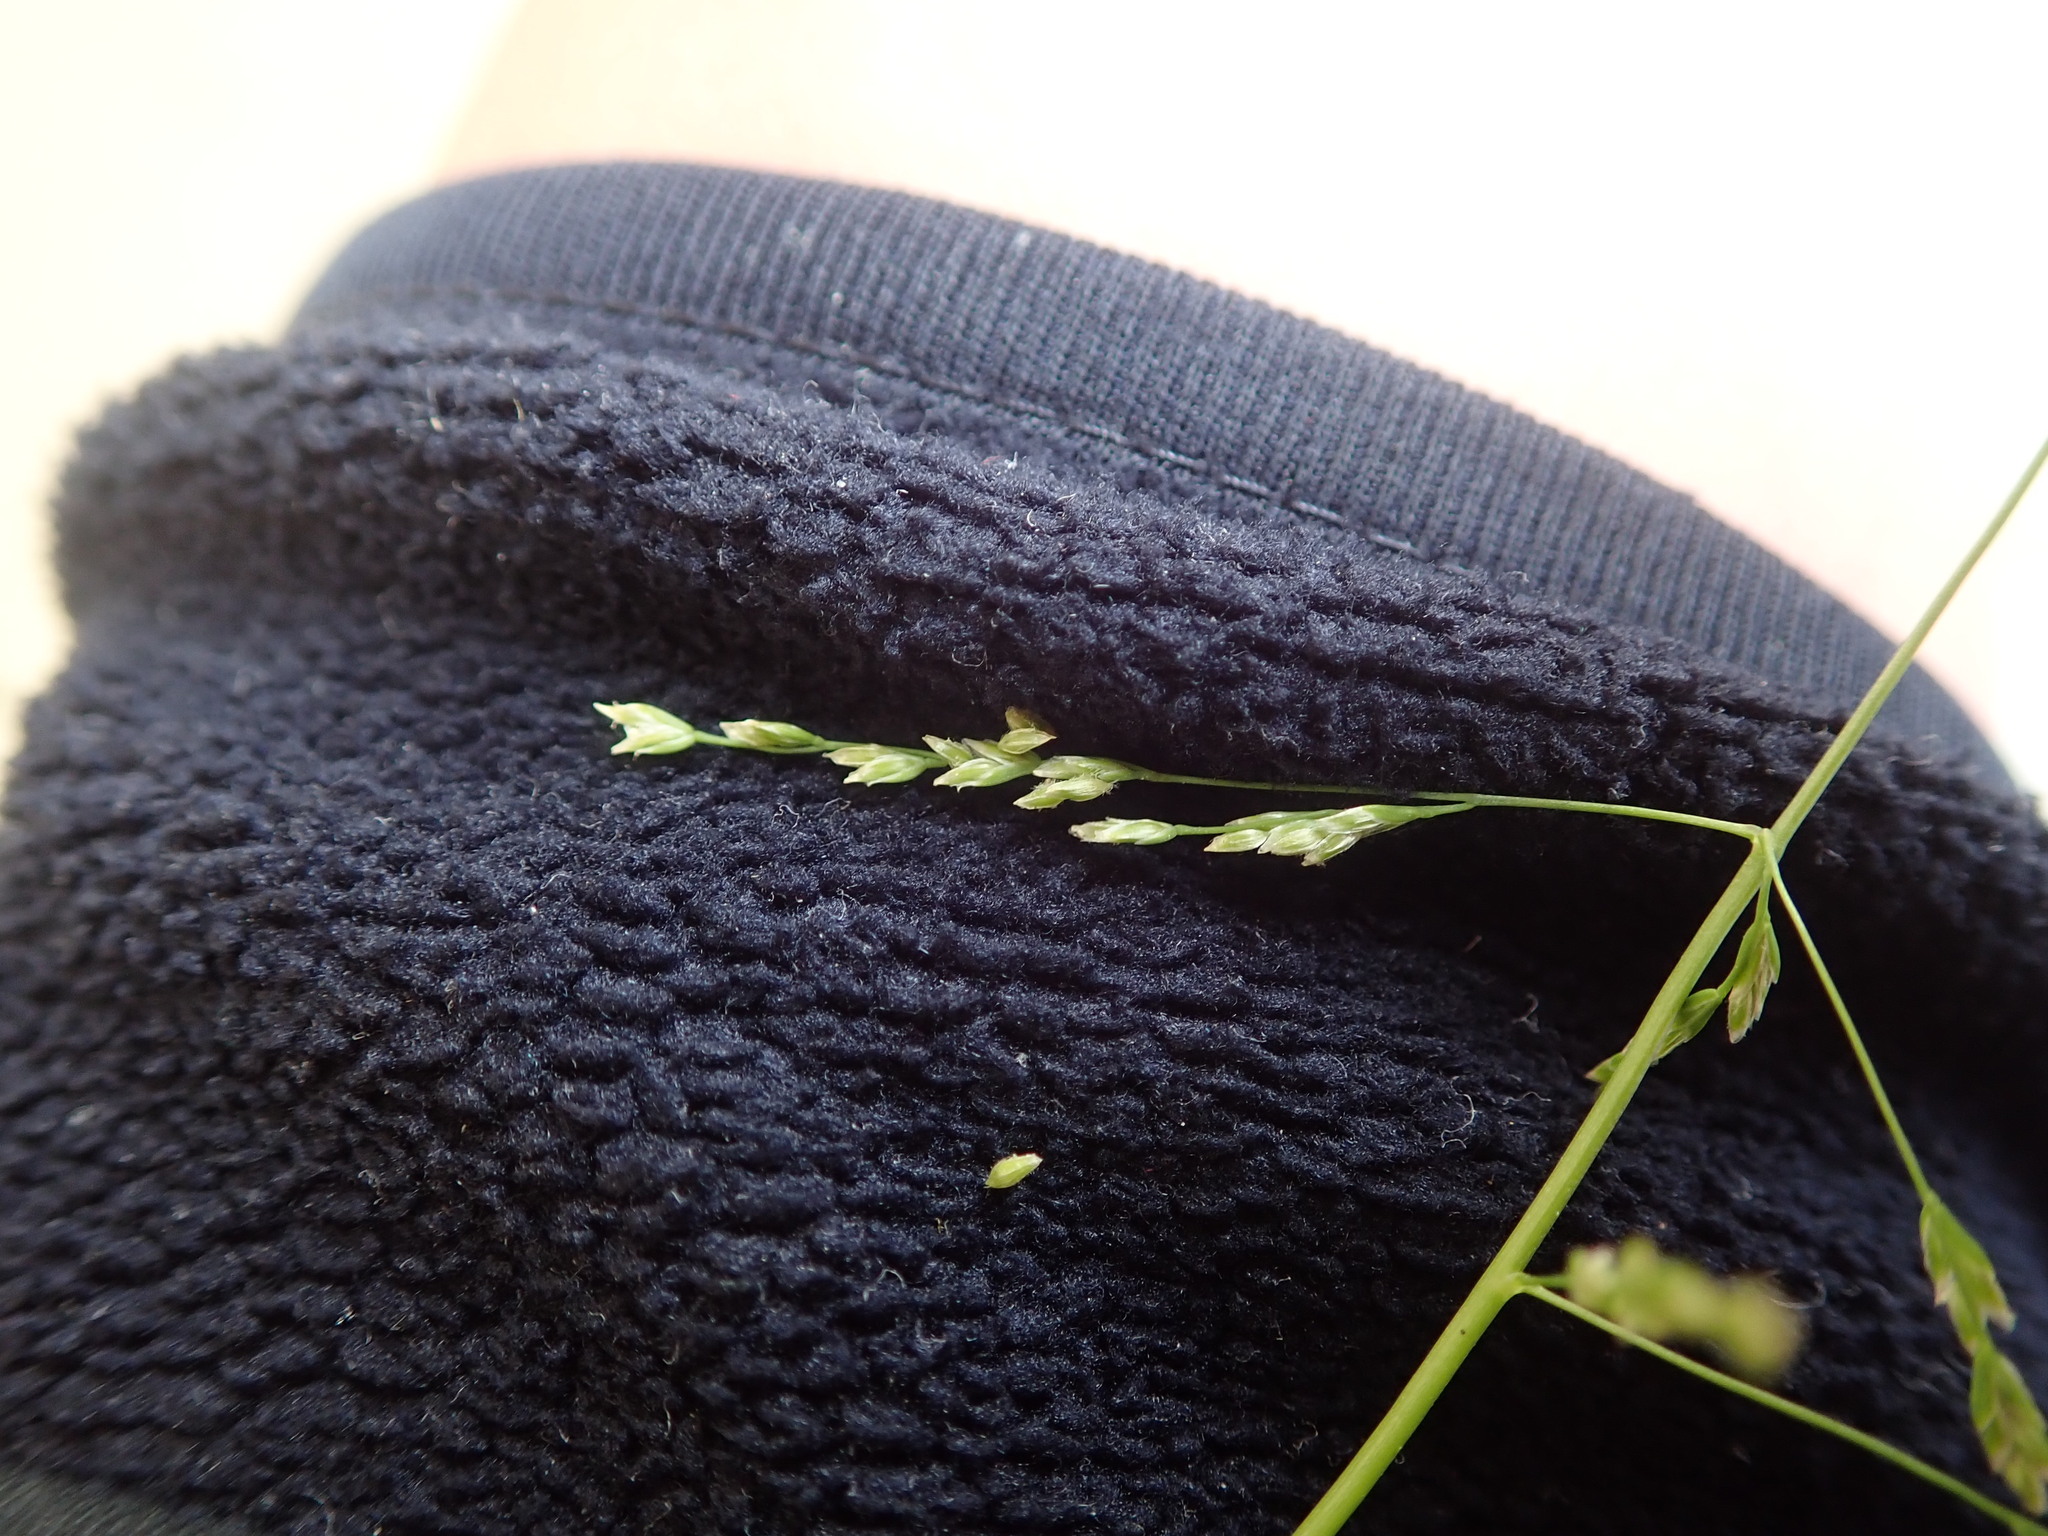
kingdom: Plantae
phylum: Tracheophyta
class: Liliopsida
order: Poales
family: Poaceae
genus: Poa
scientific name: Poa infirma
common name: Weak bluegrass
